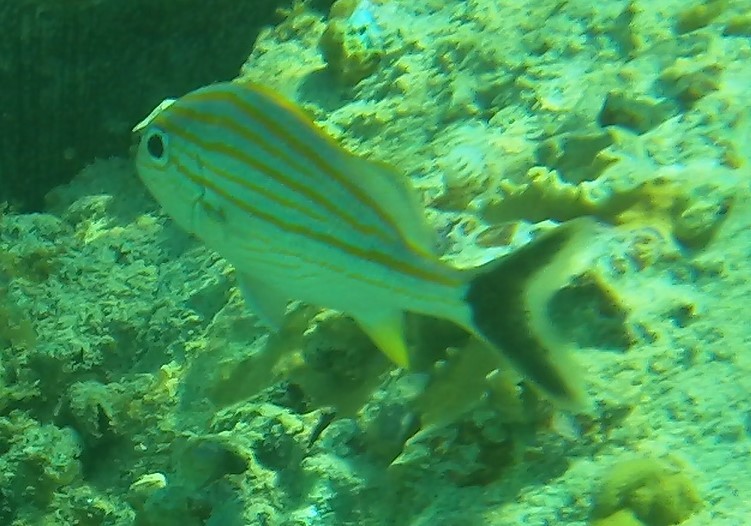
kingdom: Animalia
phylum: Chordata
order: Perciformes
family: Haemulidae
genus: Haemulon
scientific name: Haemulon carbonarium
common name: Caesar grunt
